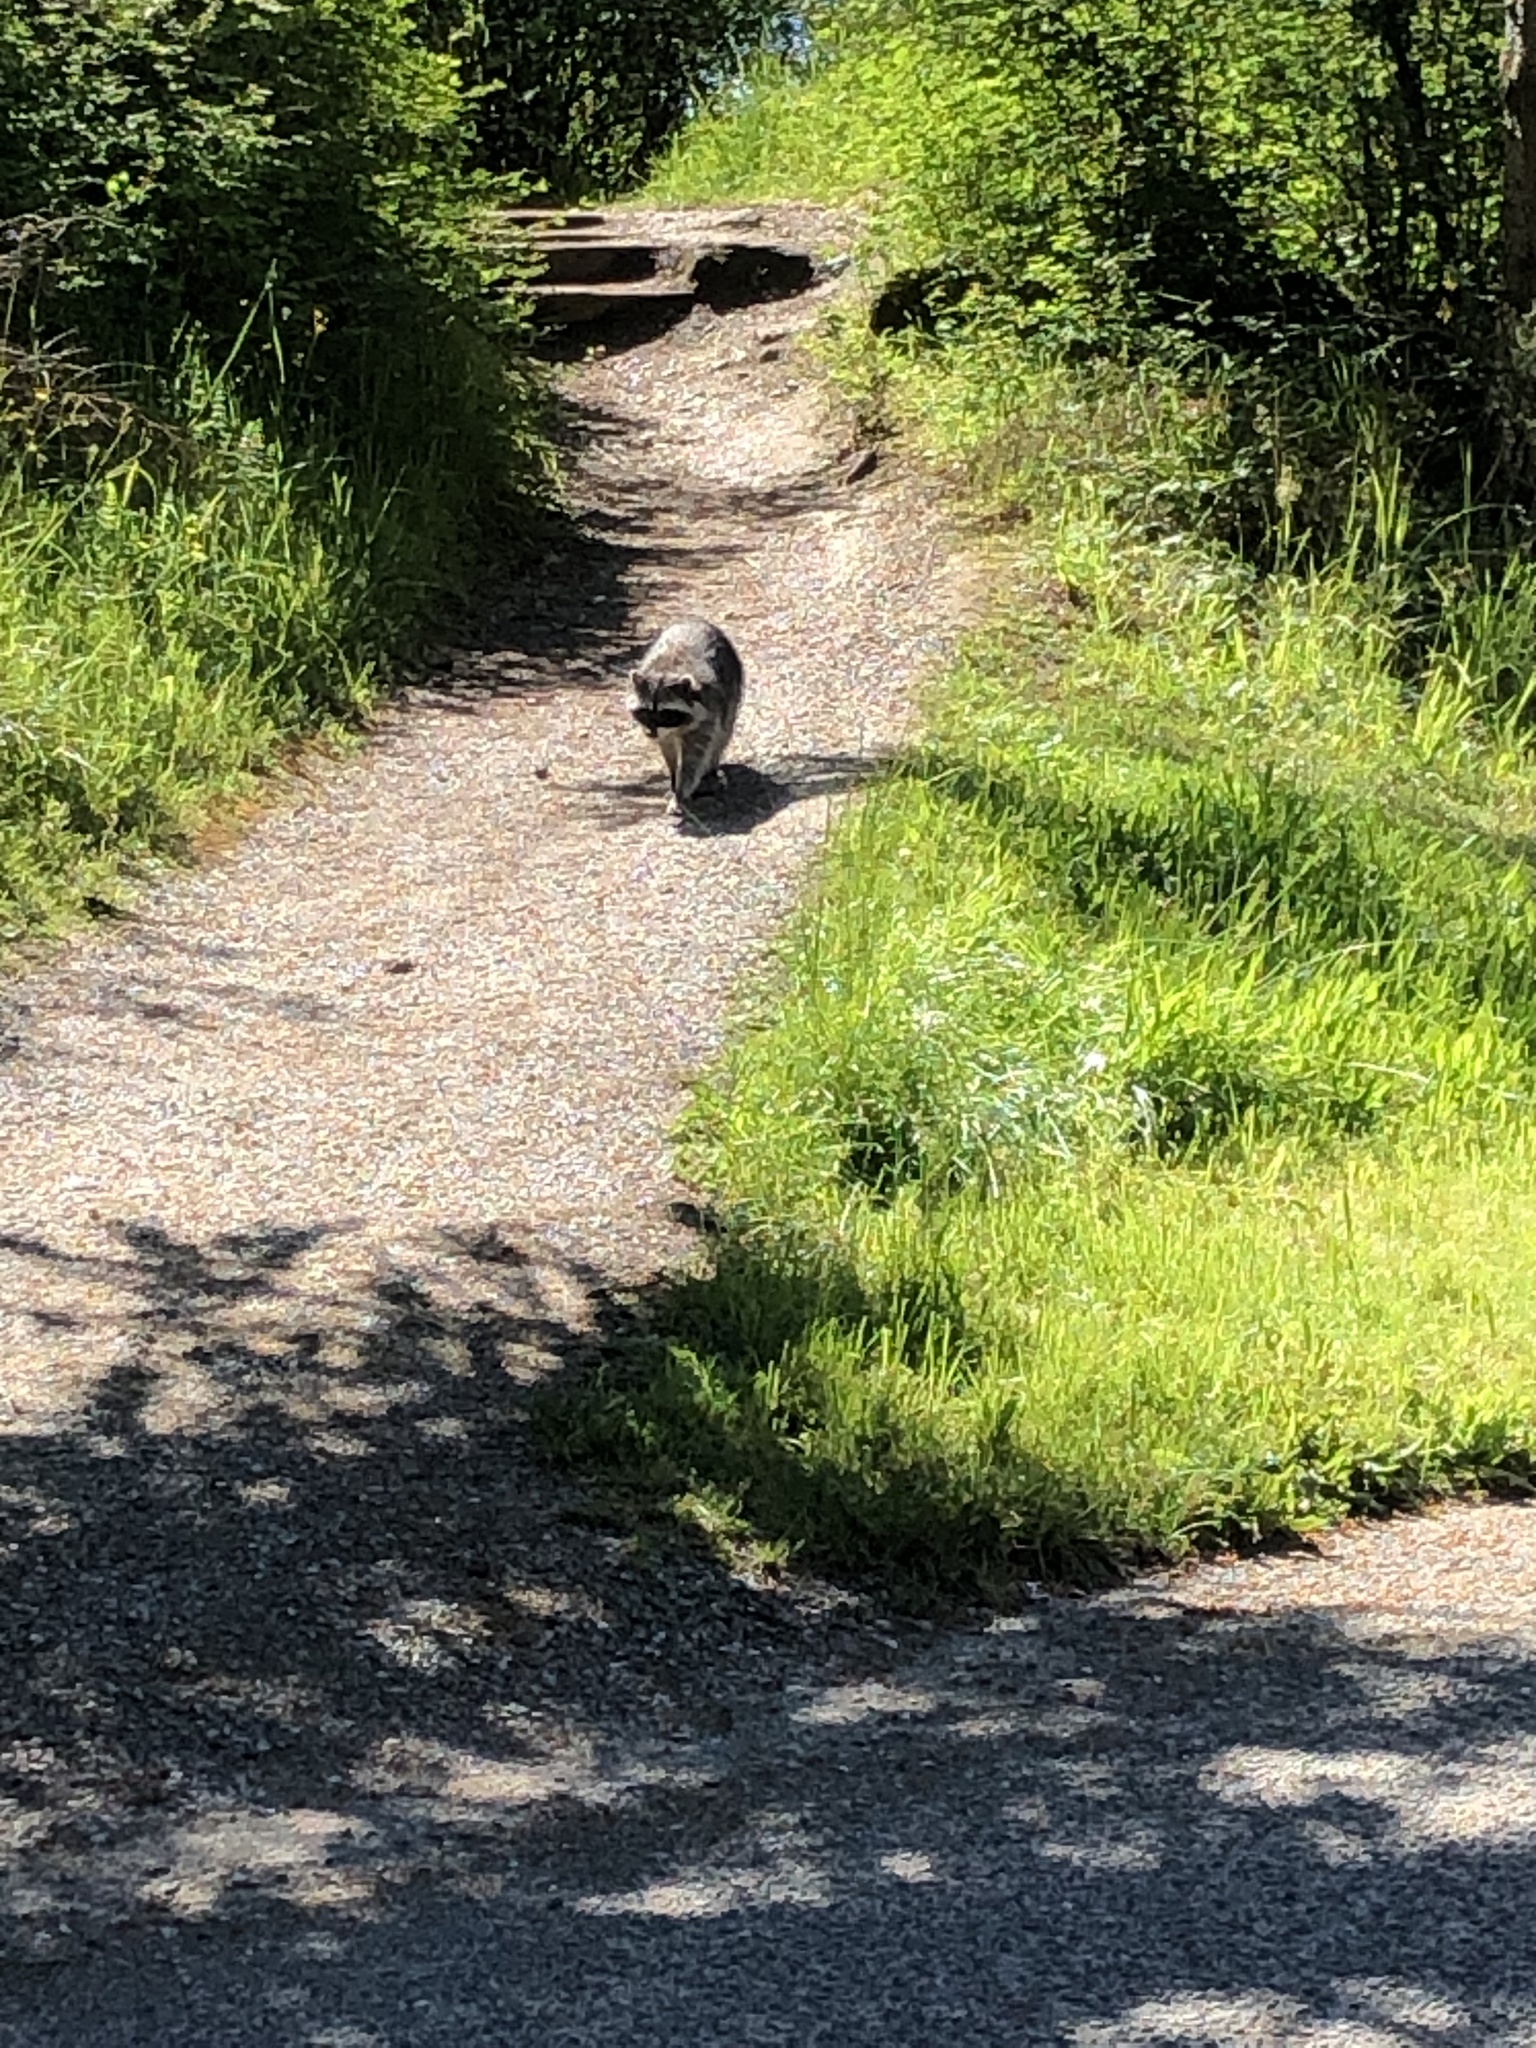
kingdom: Animalia
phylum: Chordata
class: Mammalia
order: Carnivora
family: Procyonidae
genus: Procyon
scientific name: Procyon lotor
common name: Raccoon
